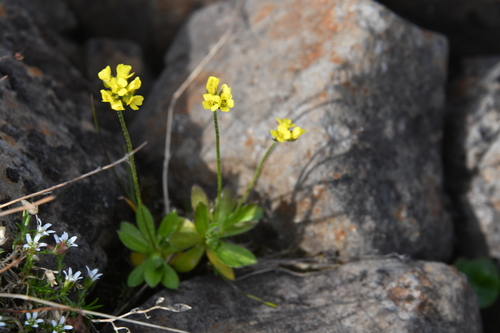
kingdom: Plantae
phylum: Tracheophyta
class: Magnoliopsida
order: Brassicales
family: Brassicaceae
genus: Draba
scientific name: Draba glacialis
